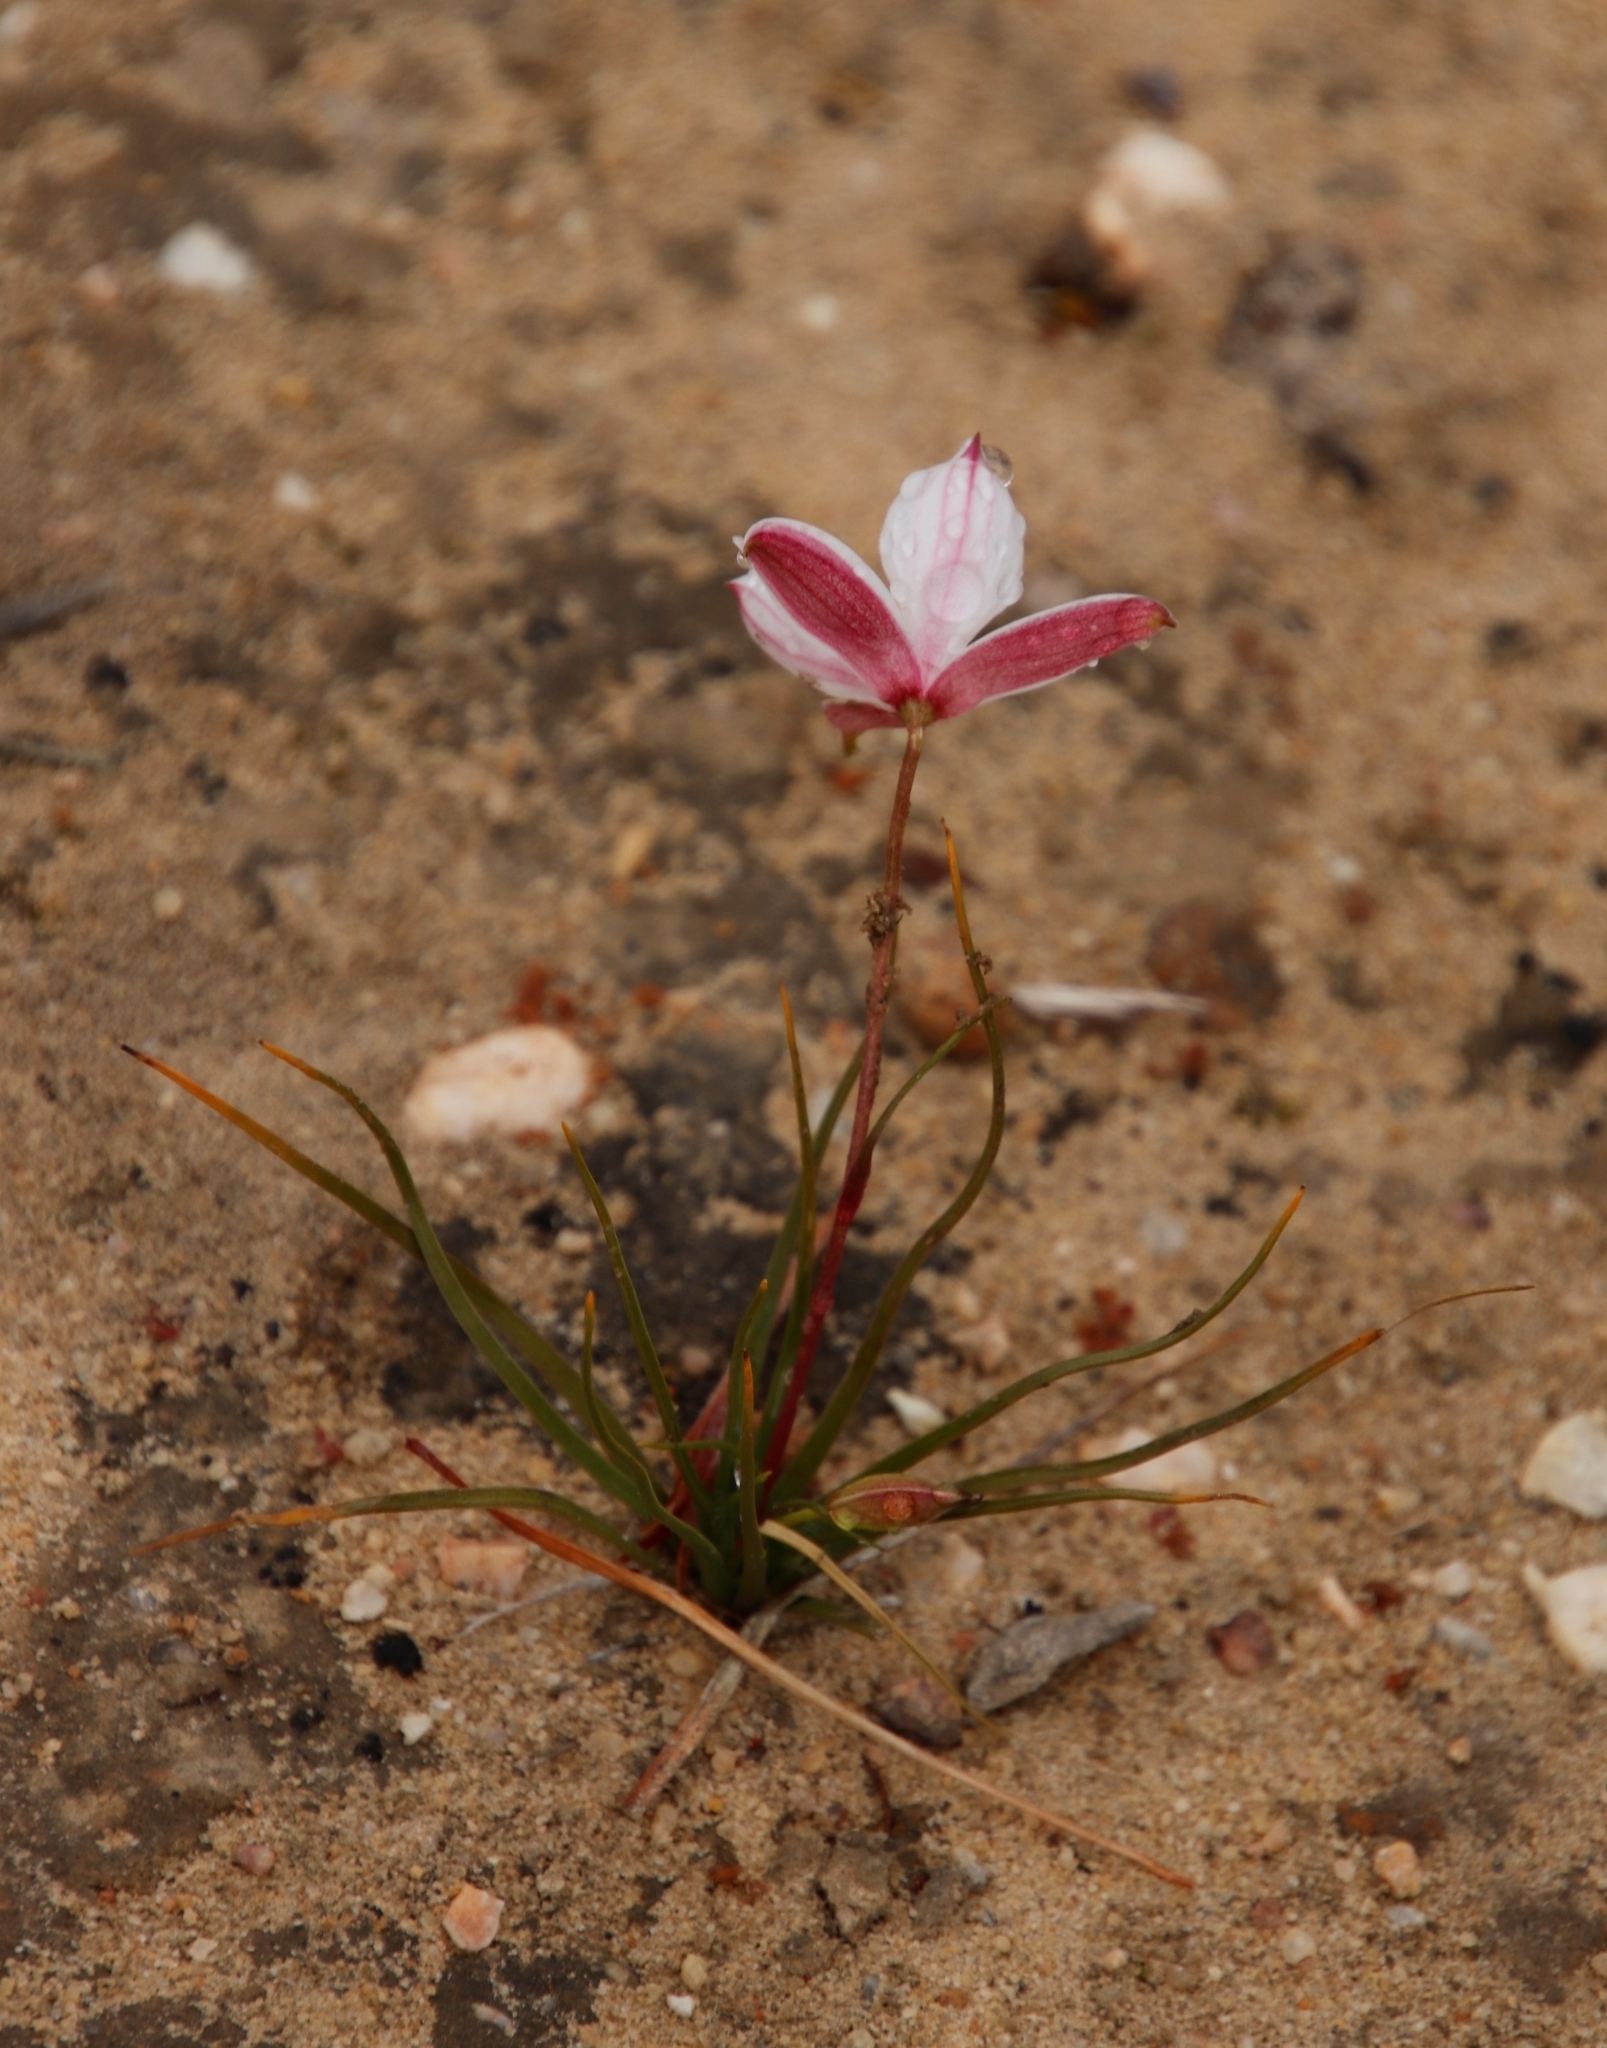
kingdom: Plantae
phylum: Tracheophyta
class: Liliopsida
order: Asparagales
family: Tecophilaeaceae
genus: Cyanella
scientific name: Cyanella alba
